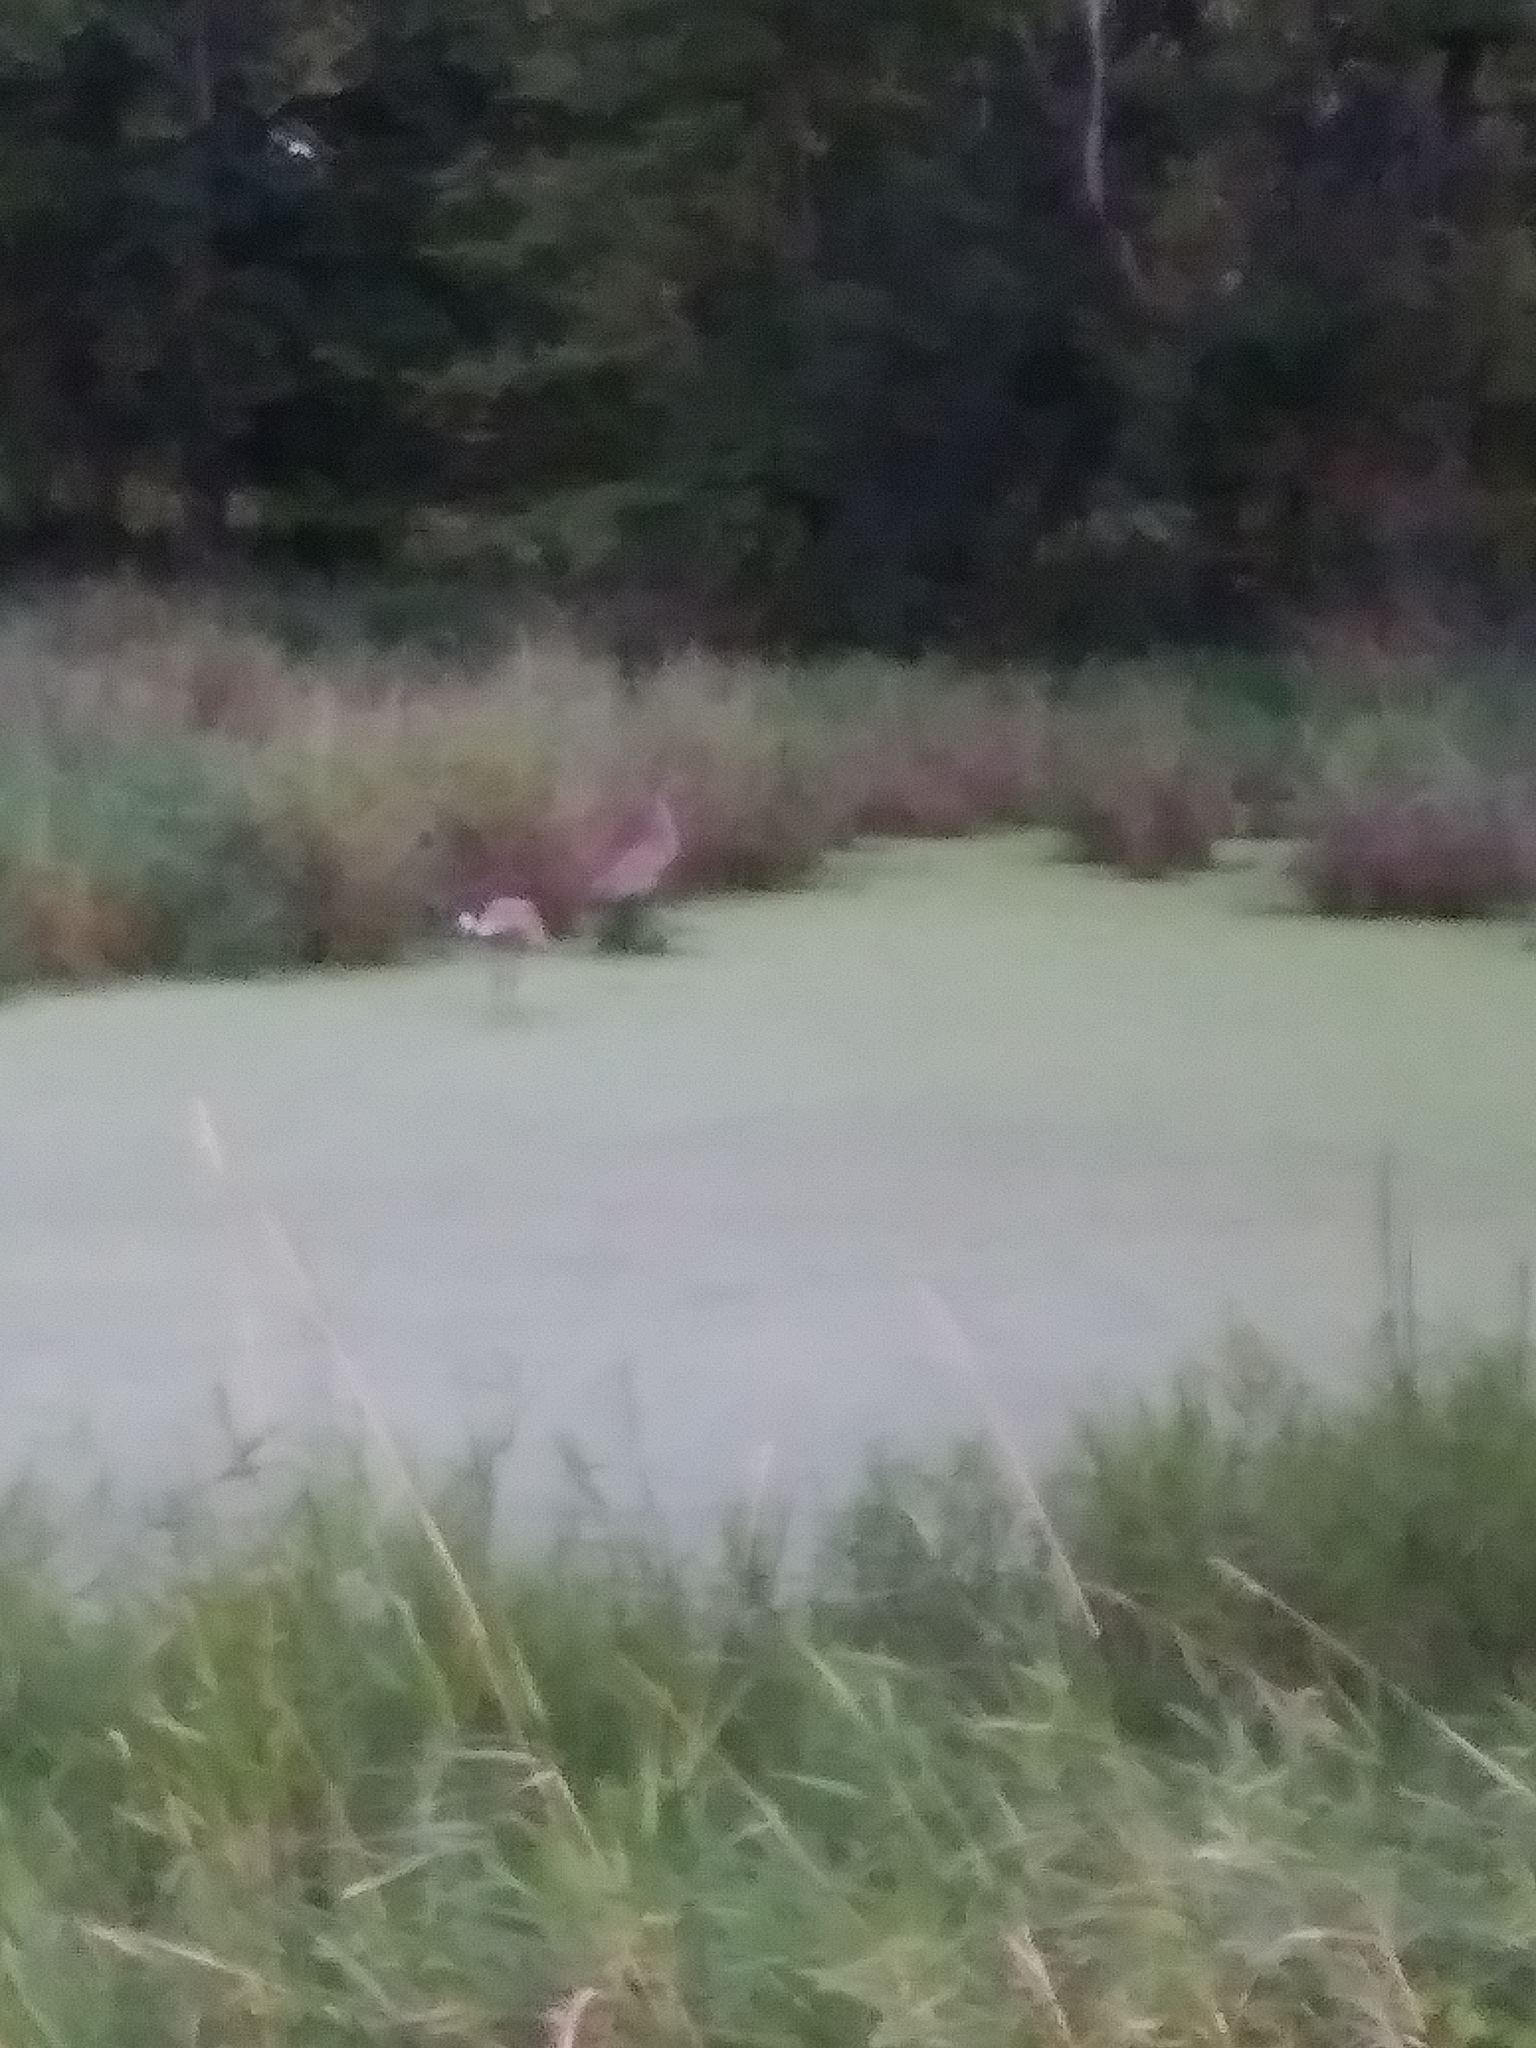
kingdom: Animalia
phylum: Chordata
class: Aves
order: Gruiformes
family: Gruidae
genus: Grus
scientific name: Grus canadensis
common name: Sandhill crane
